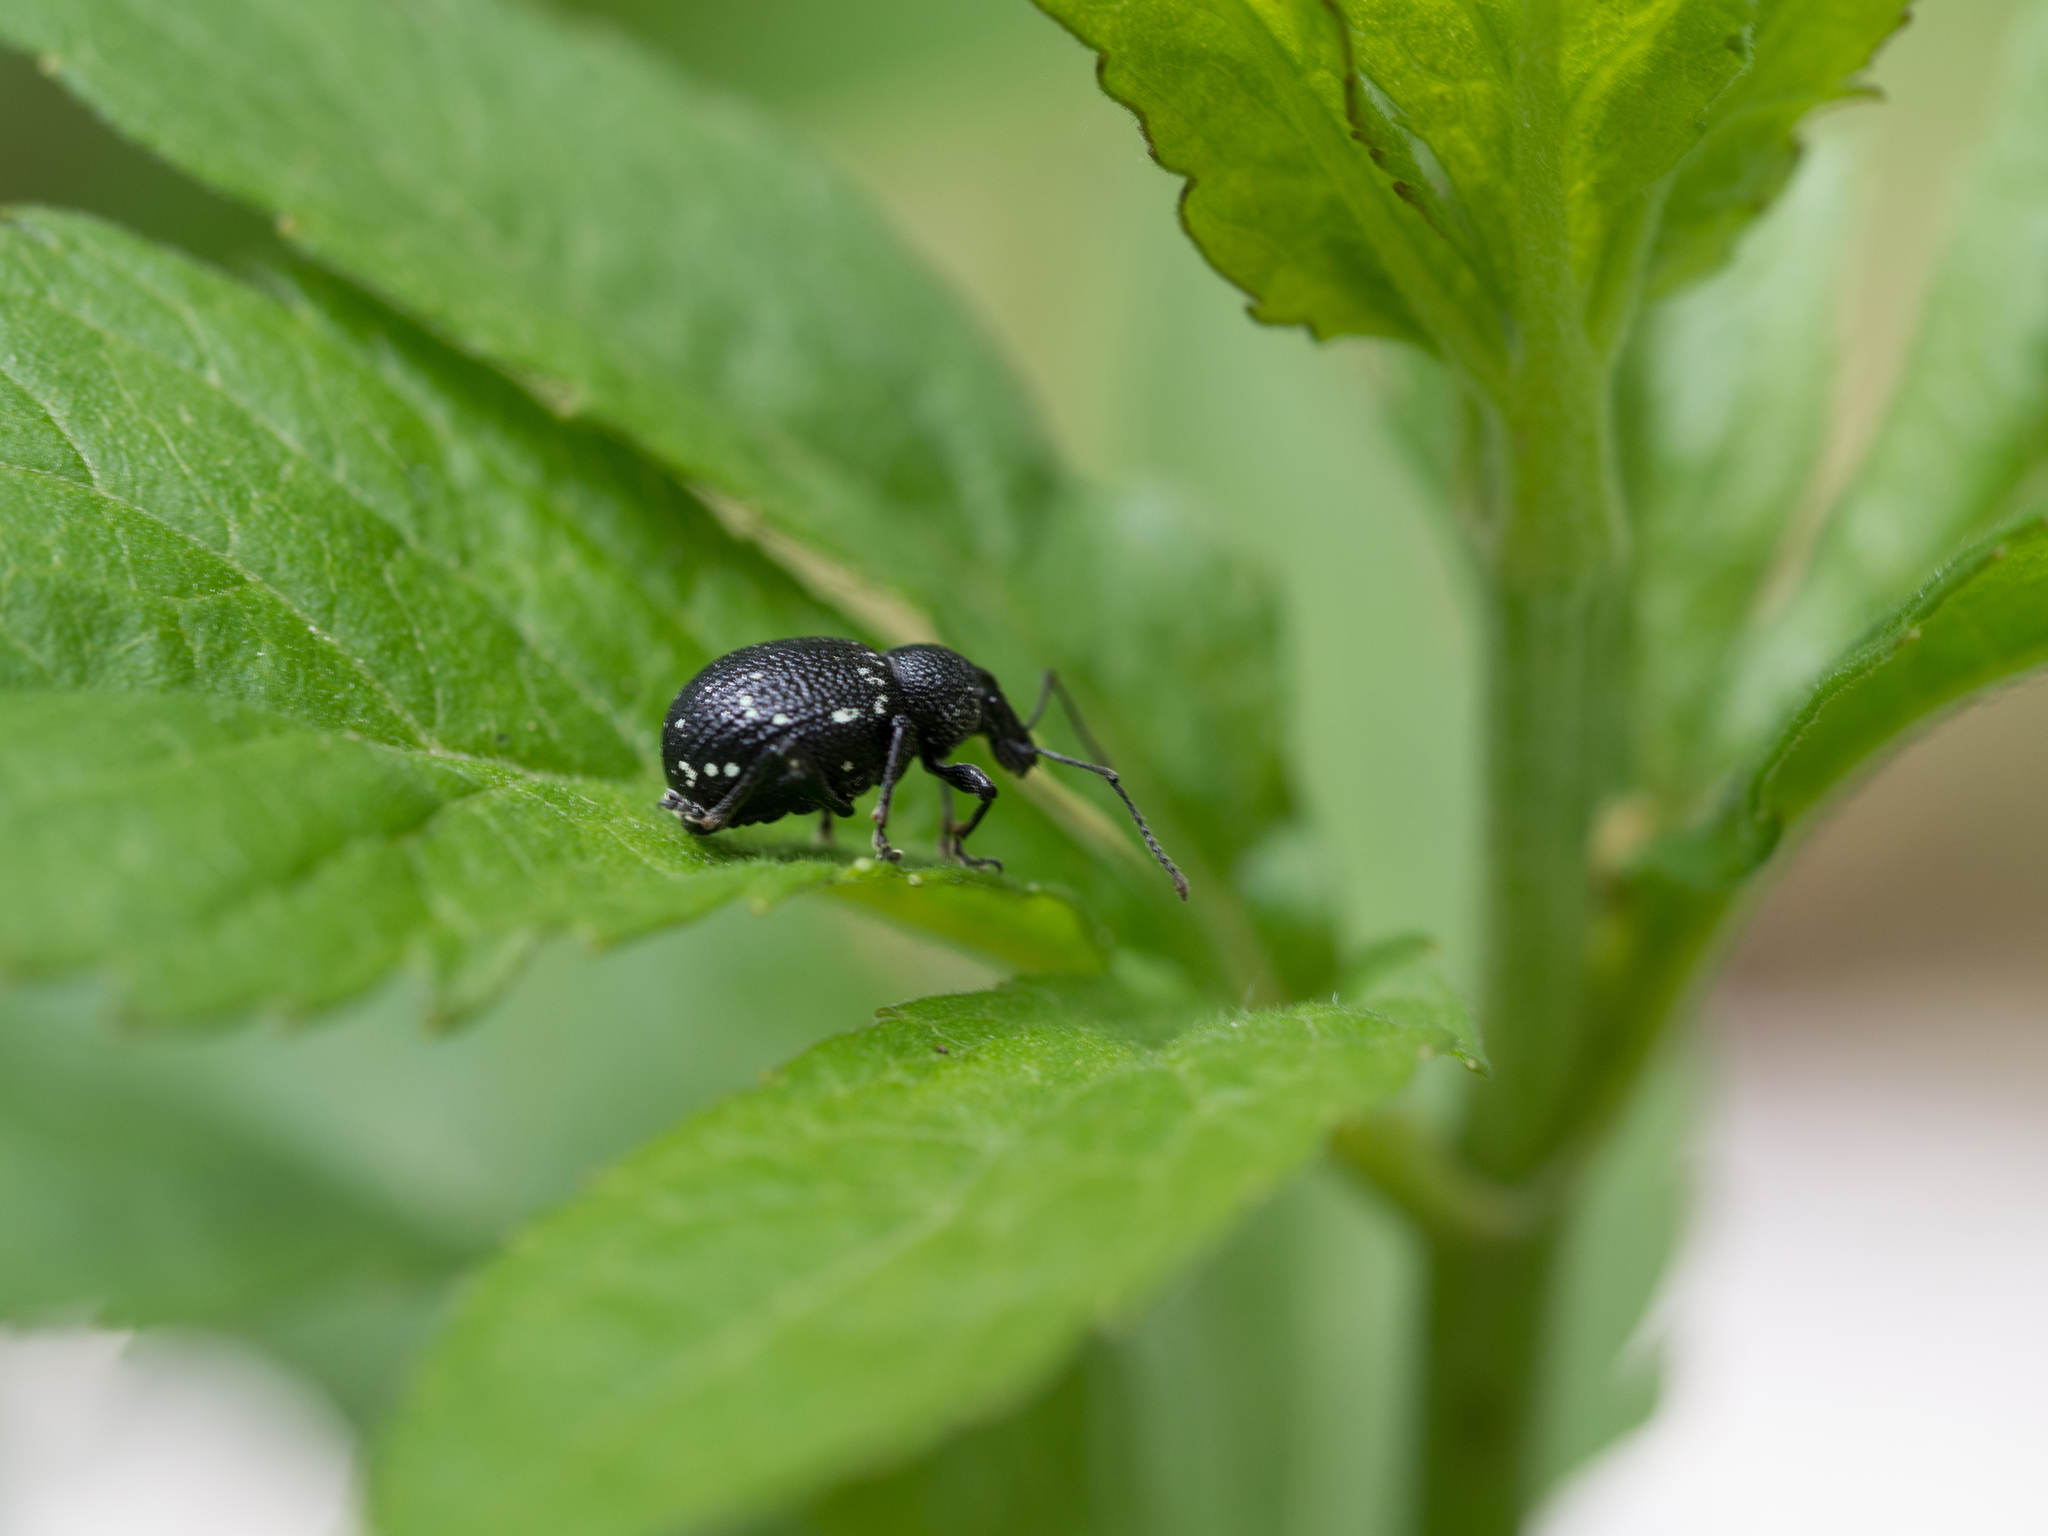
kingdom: Animalia
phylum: Arthropoda
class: Insecta
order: Coleoptera
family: Curculionidae
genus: Otiorhynchus
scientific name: Otiorhynchus gemmatus
